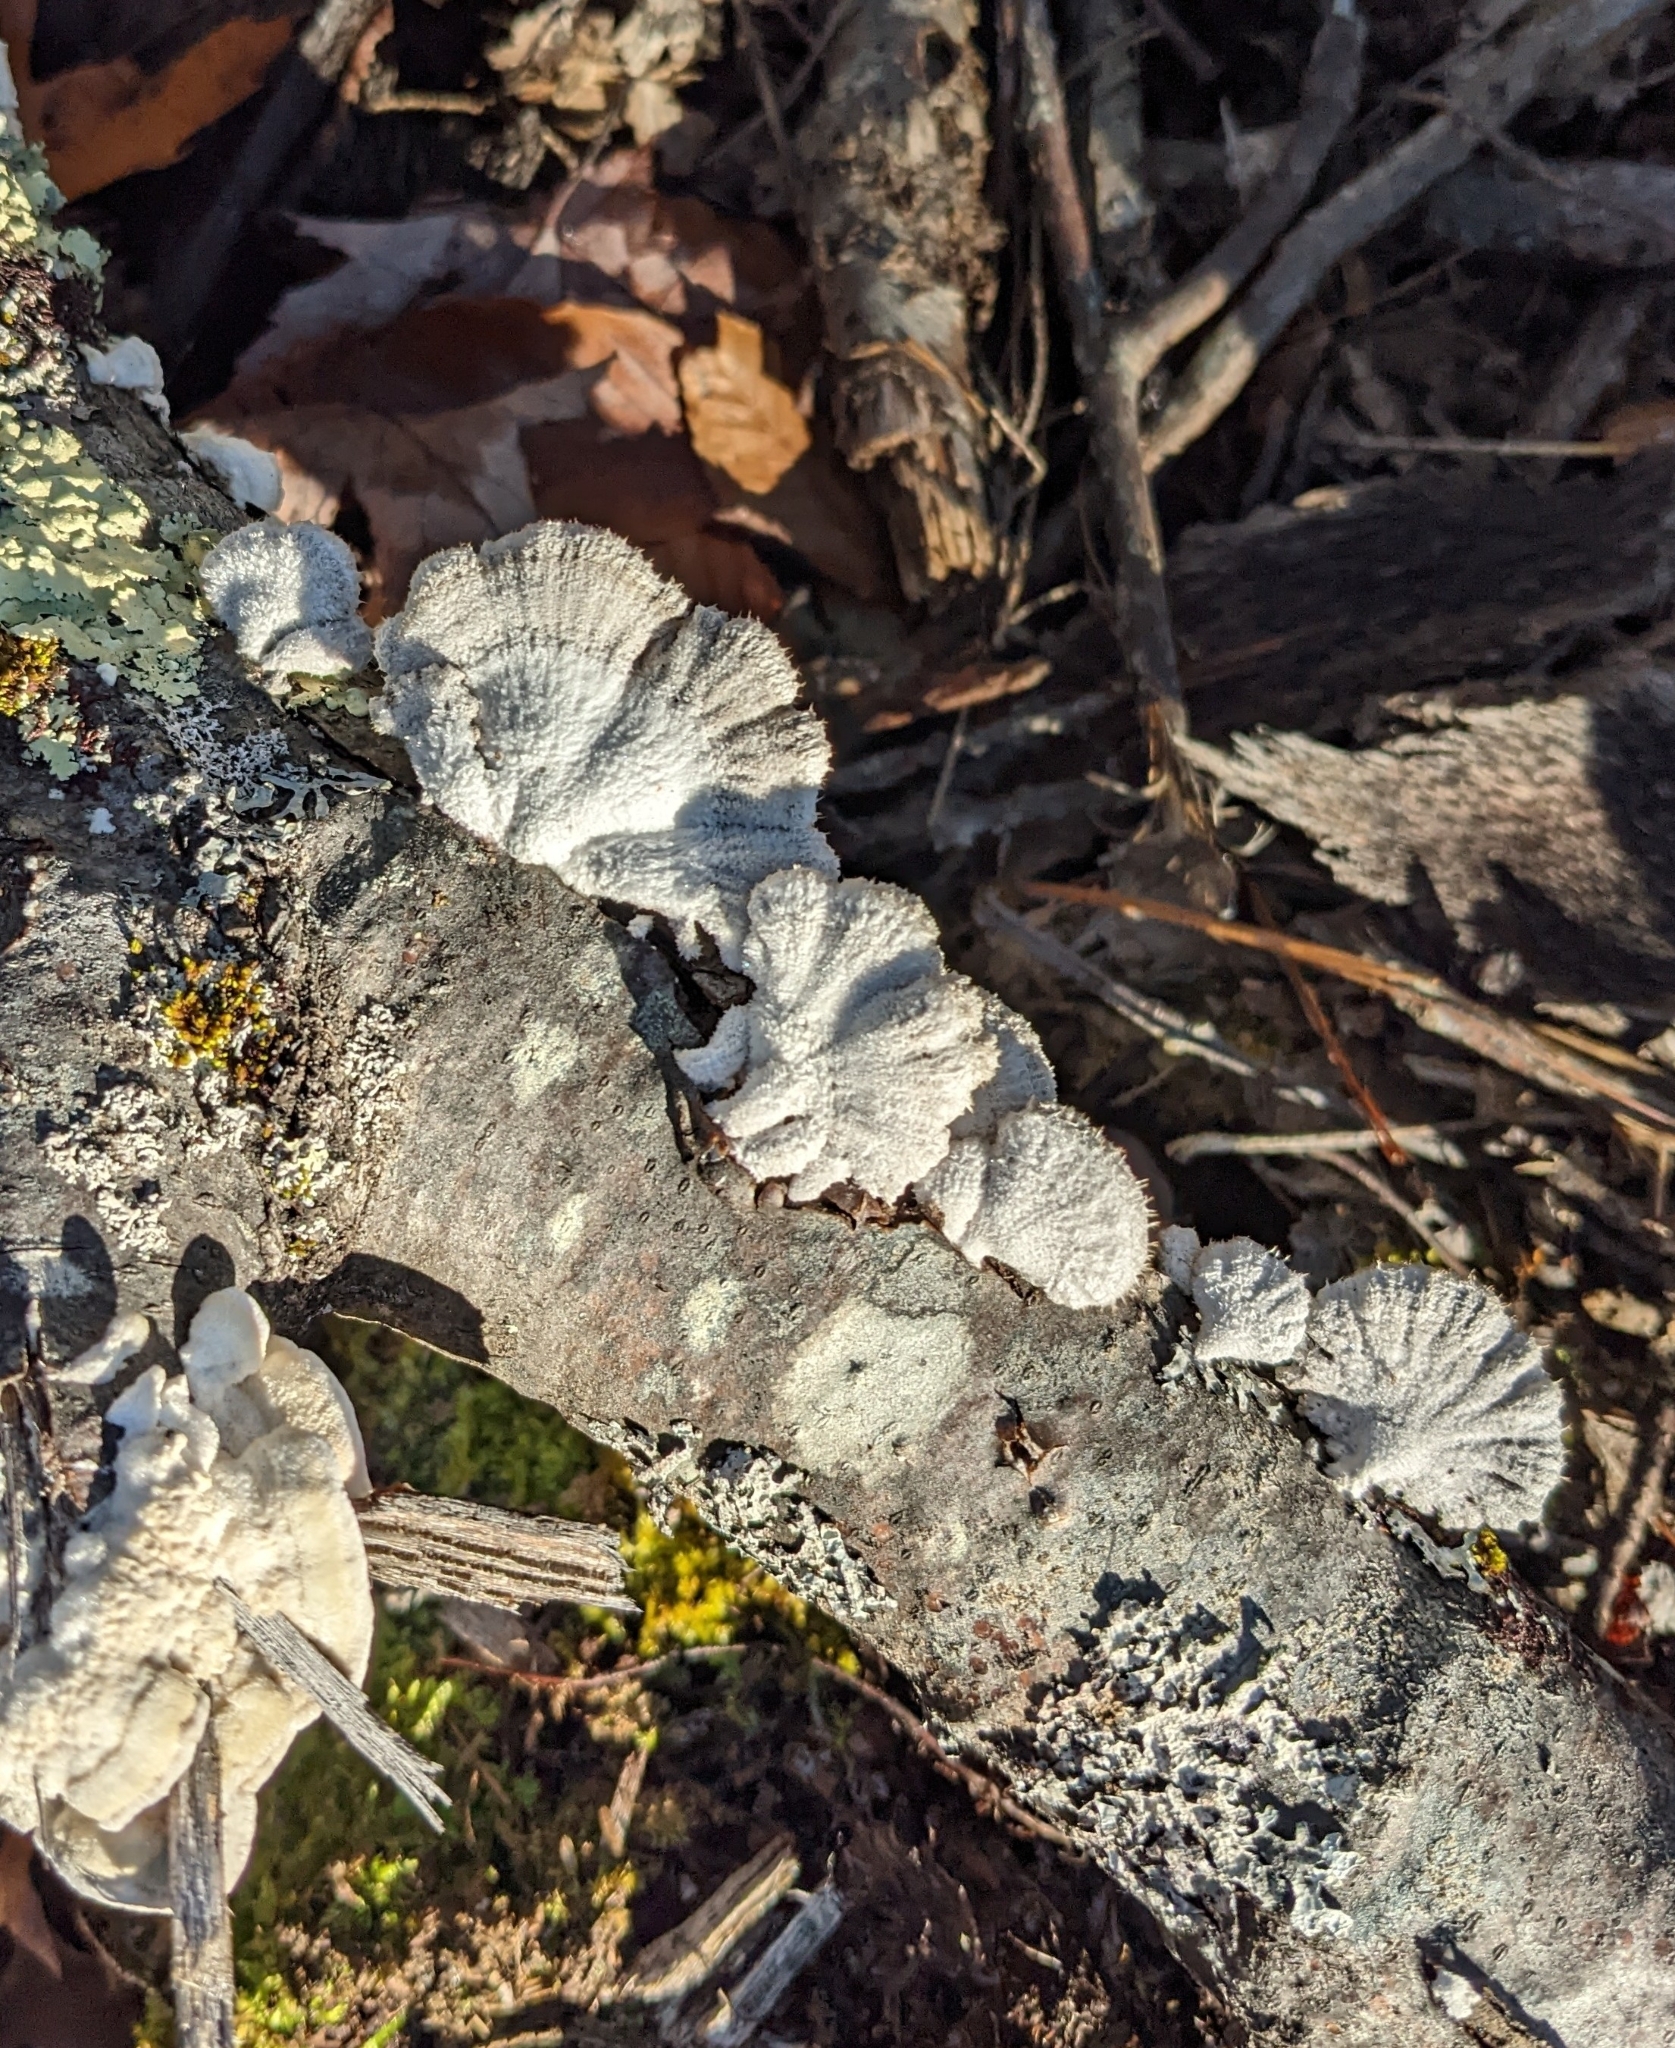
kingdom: Fungi
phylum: Basidiomycota
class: Agaricomycetes
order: Agaricales
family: Schizophyllaceae
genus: Schizophyllum
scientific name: Schizophyllum commune
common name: Common porecrust
